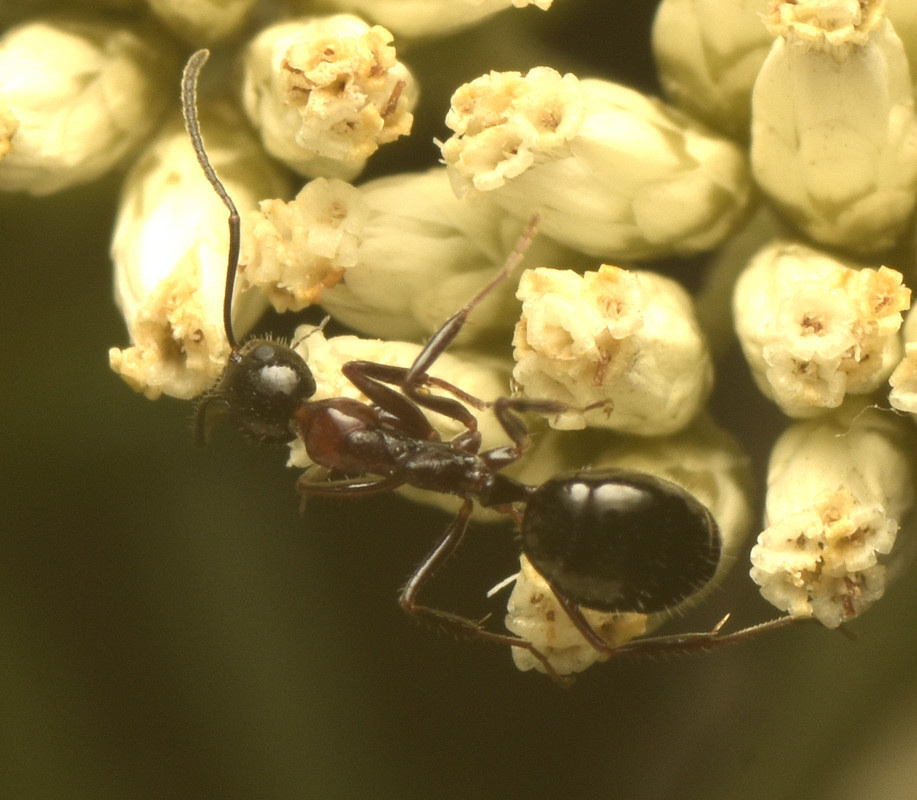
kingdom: Animalia
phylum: Arthropoda
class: Insecta
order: Hymenoptera
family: Formicidae
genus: Dolichoderus
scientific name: Dolichoderus australis
